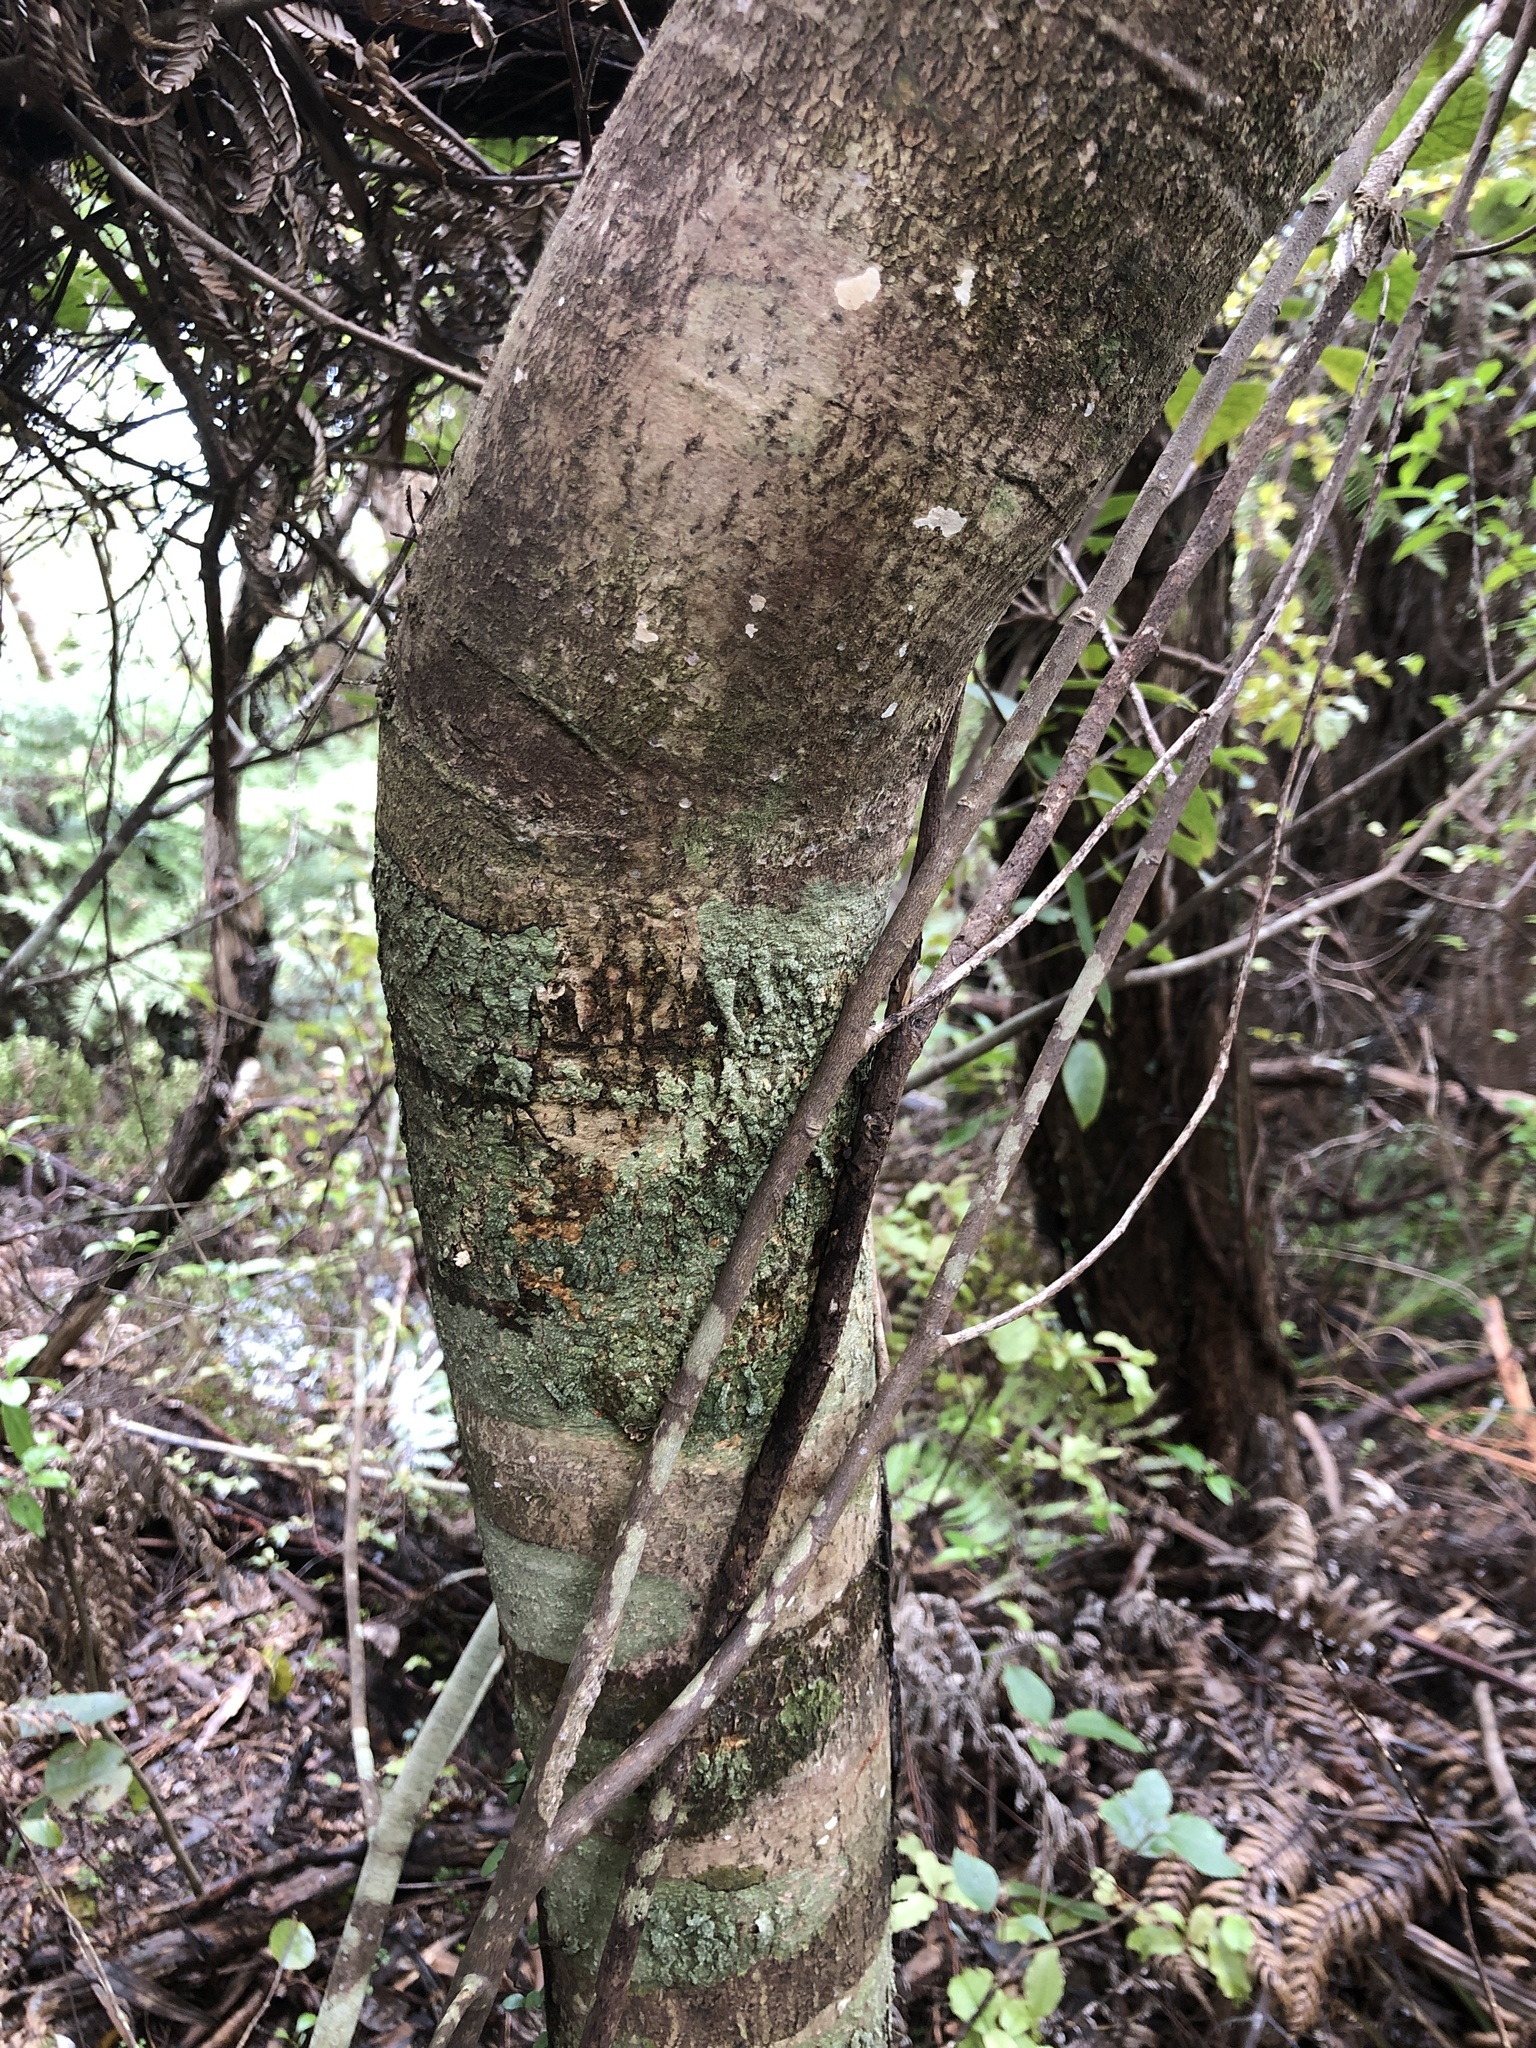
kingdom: Plantae
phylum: Tracheophyta
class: Magnoliopsida
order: Oxalidales
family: Elaeocarpaceae
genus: Aristotelia
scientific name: Aristotelia serrata
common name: New zealand wineberry
